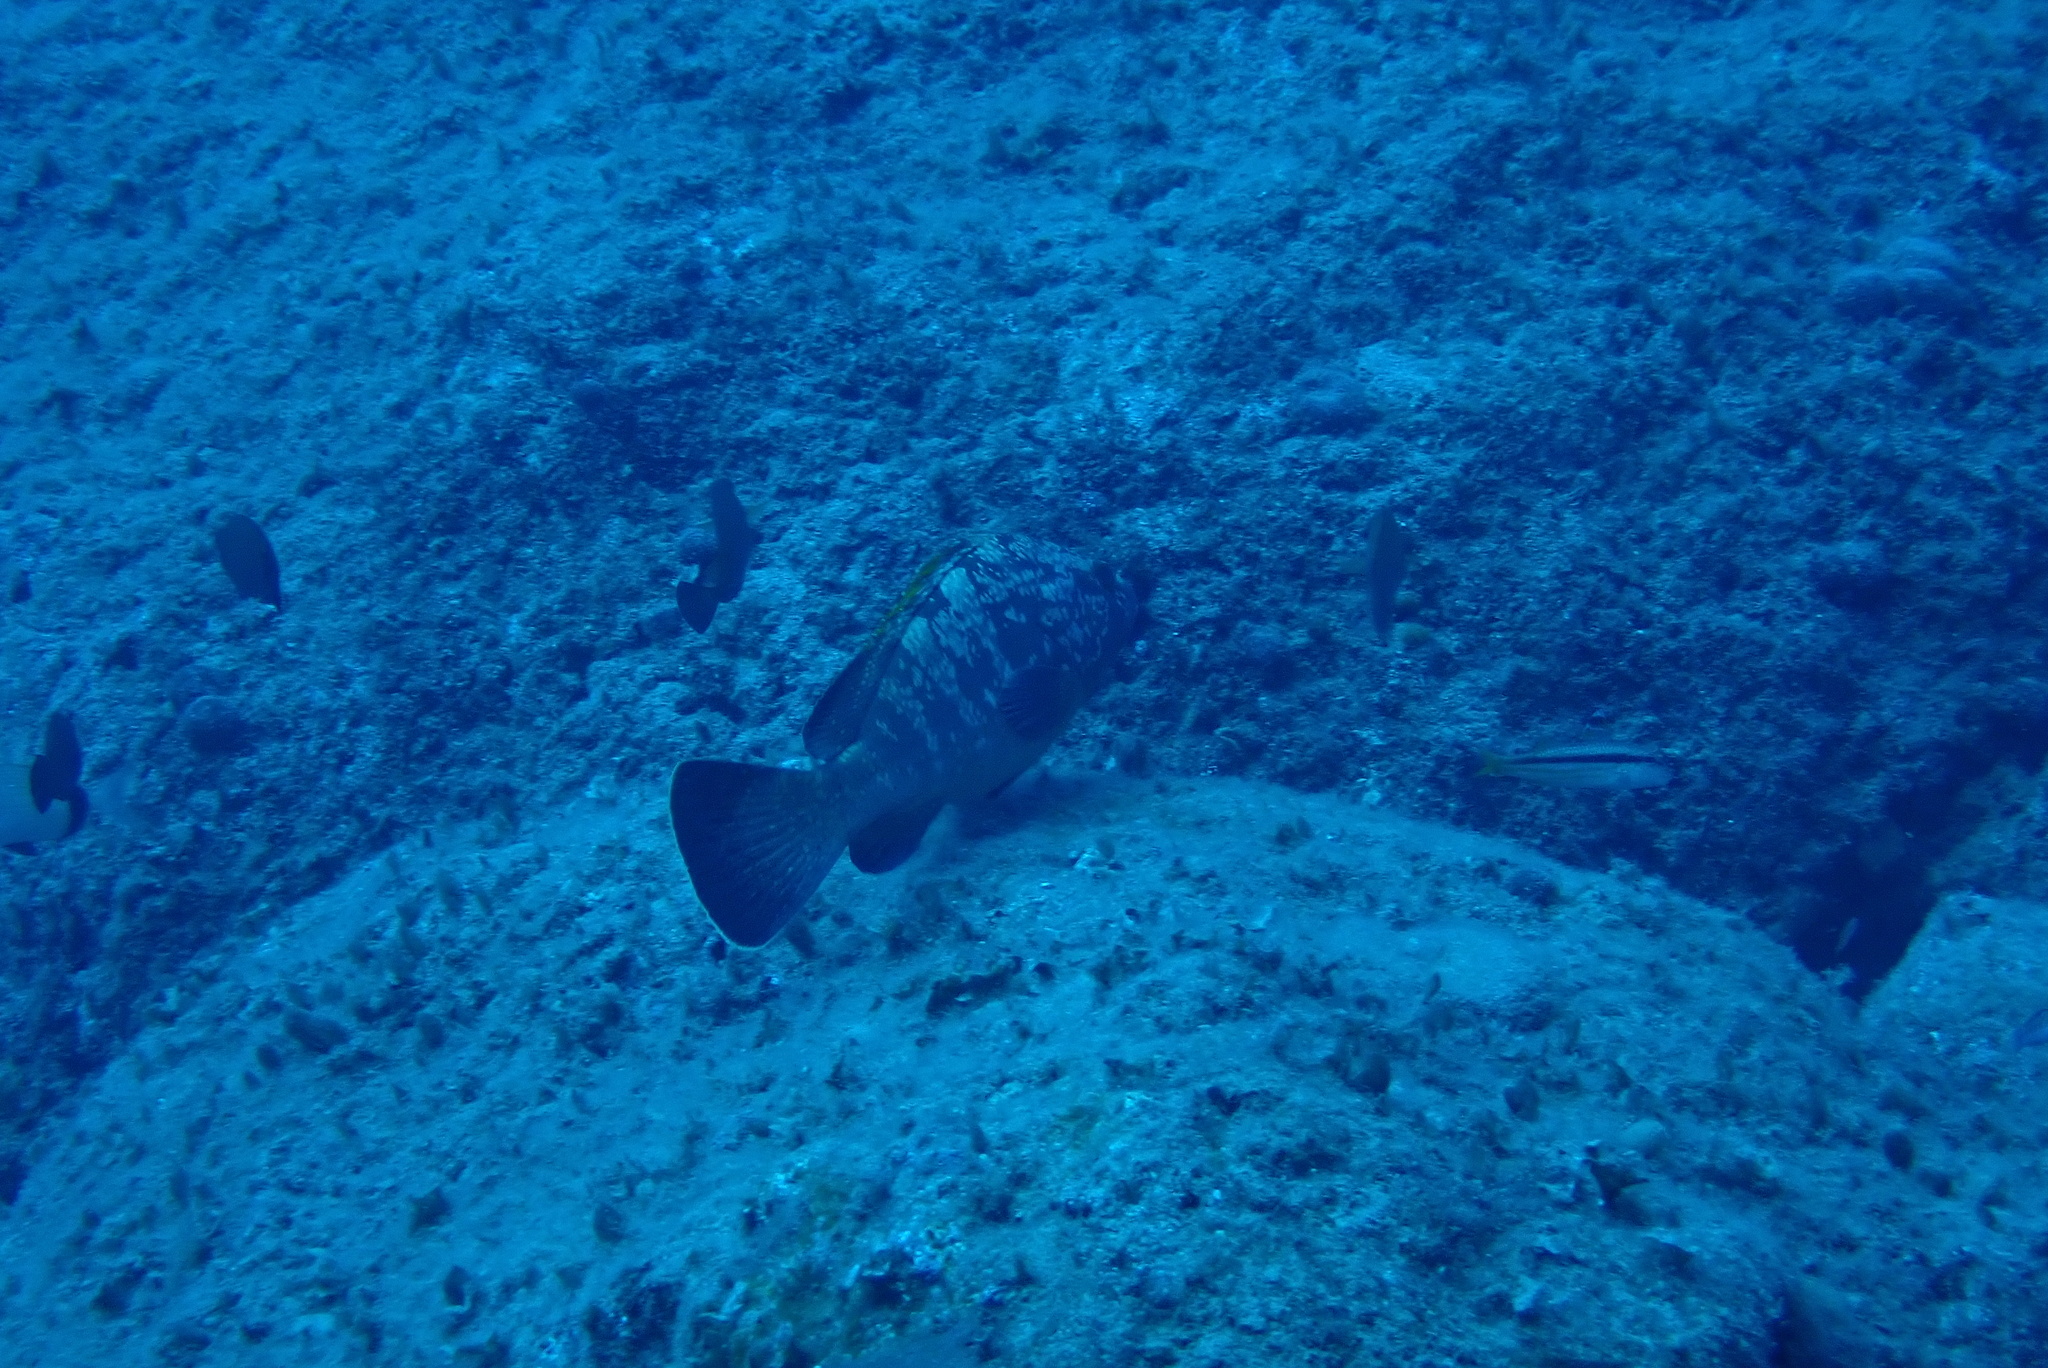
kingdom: Animalia
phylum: Chordata
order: Perciformes
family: Serranidae
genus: Epinephelus
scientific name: Epinephelus marginatus
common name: Dusky grouper
